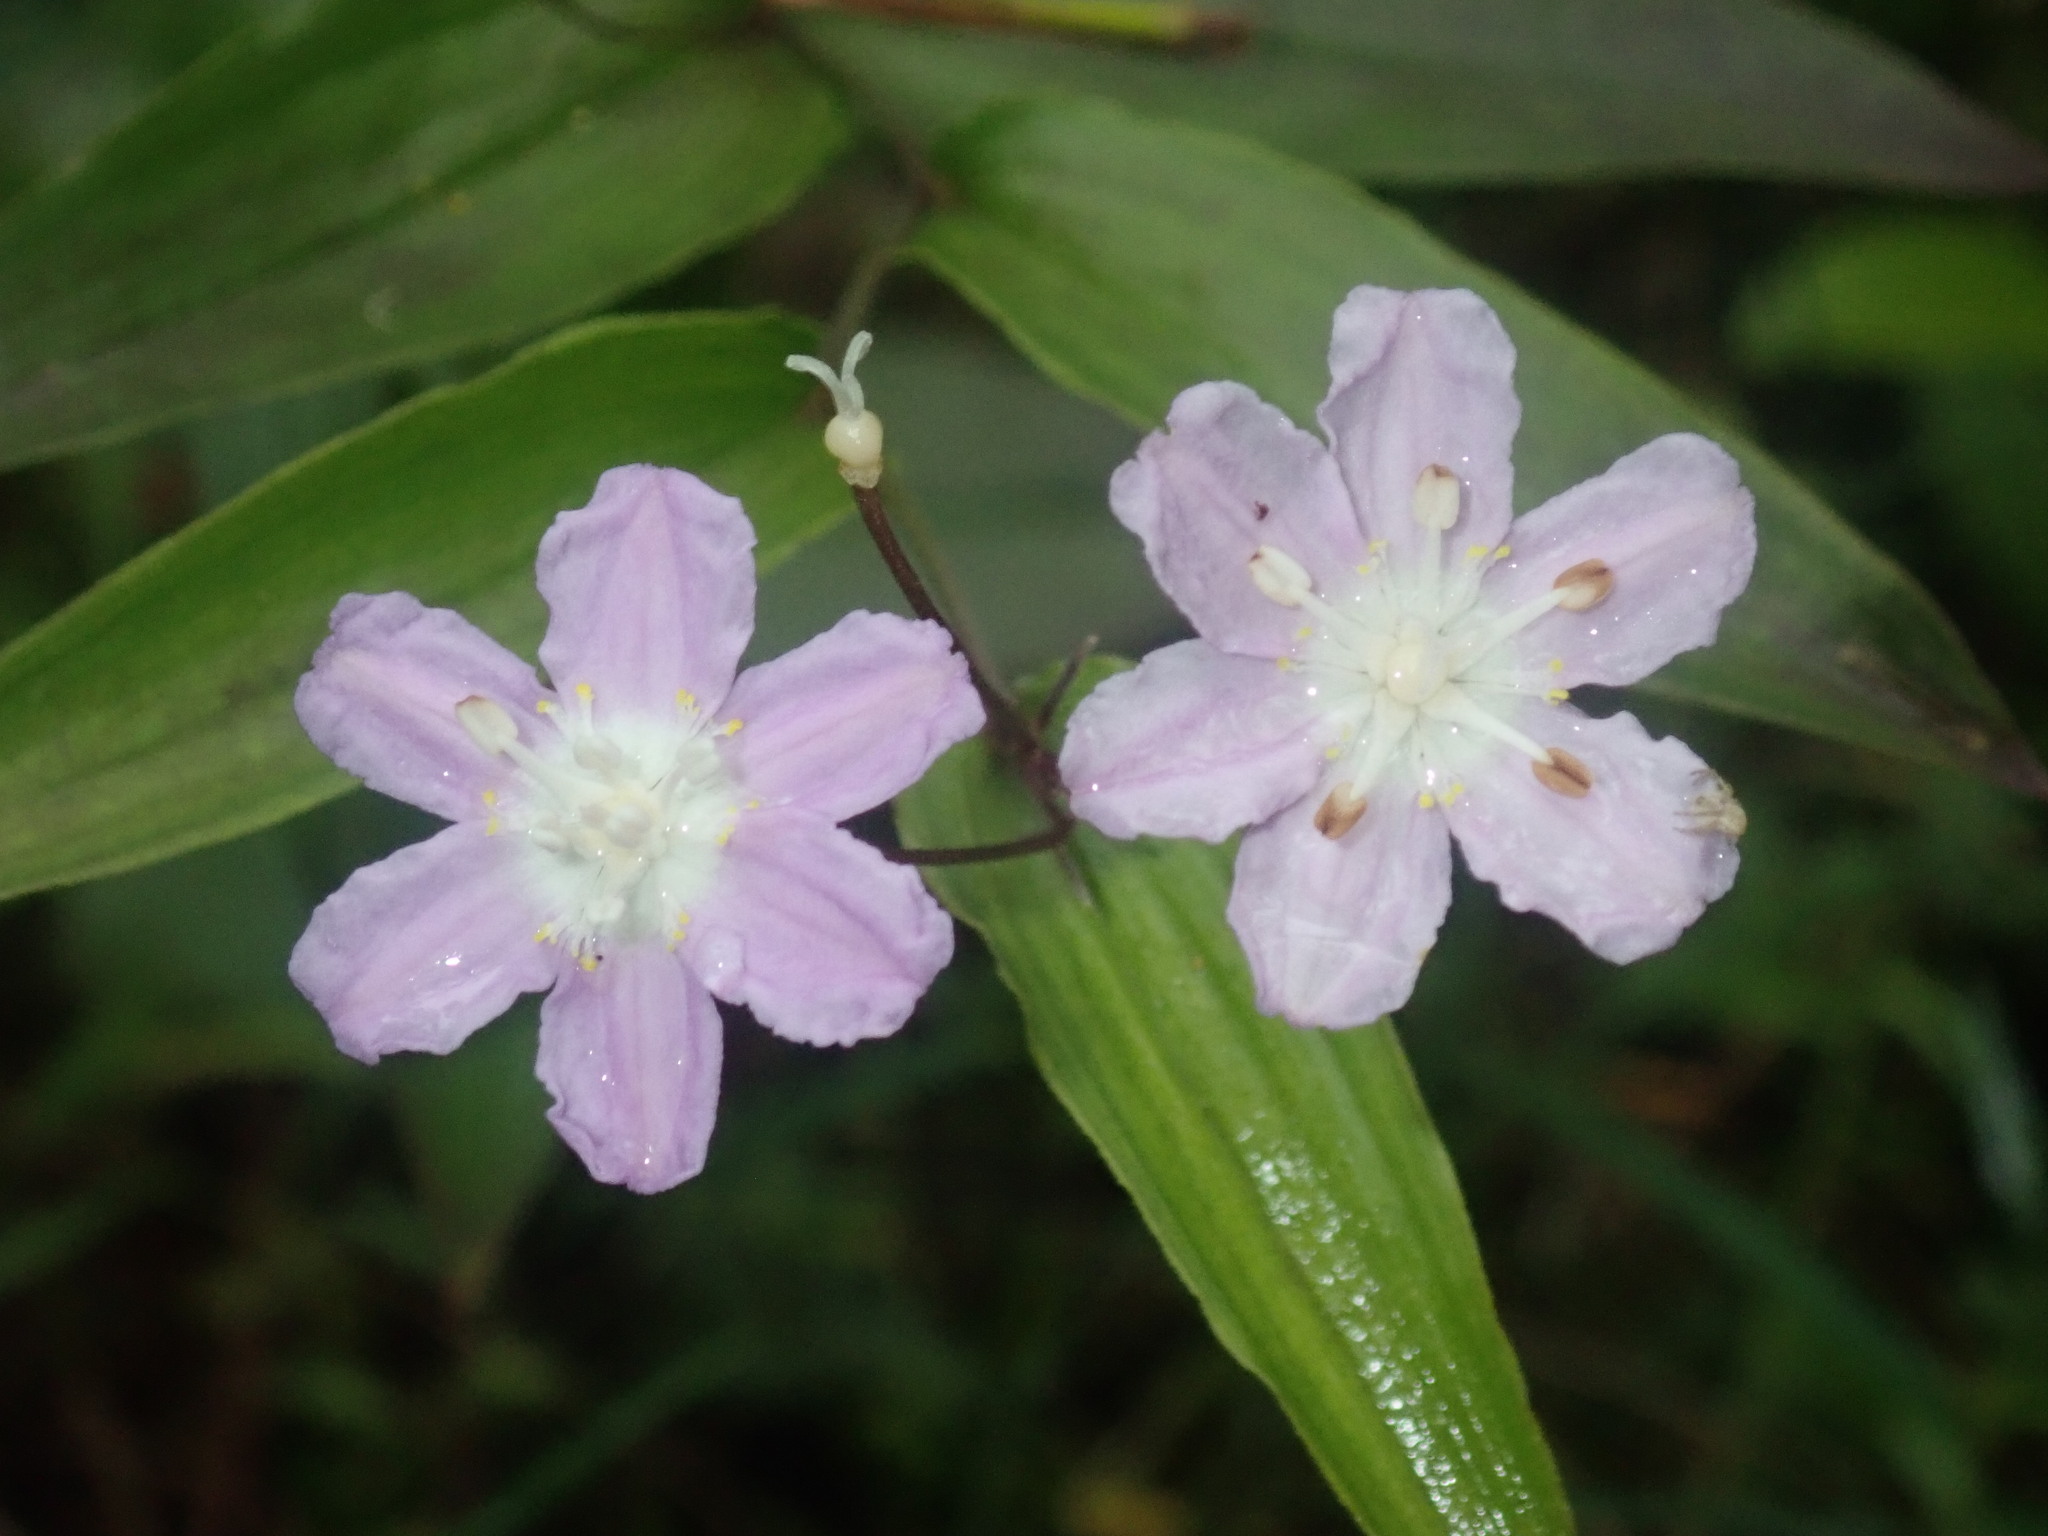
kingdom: Plantae
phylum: Tracheophyta
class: Liliopsida
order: Liliales
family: Colchicaceae
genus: Tripladenia
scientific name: Tripladenia cunninghamii
